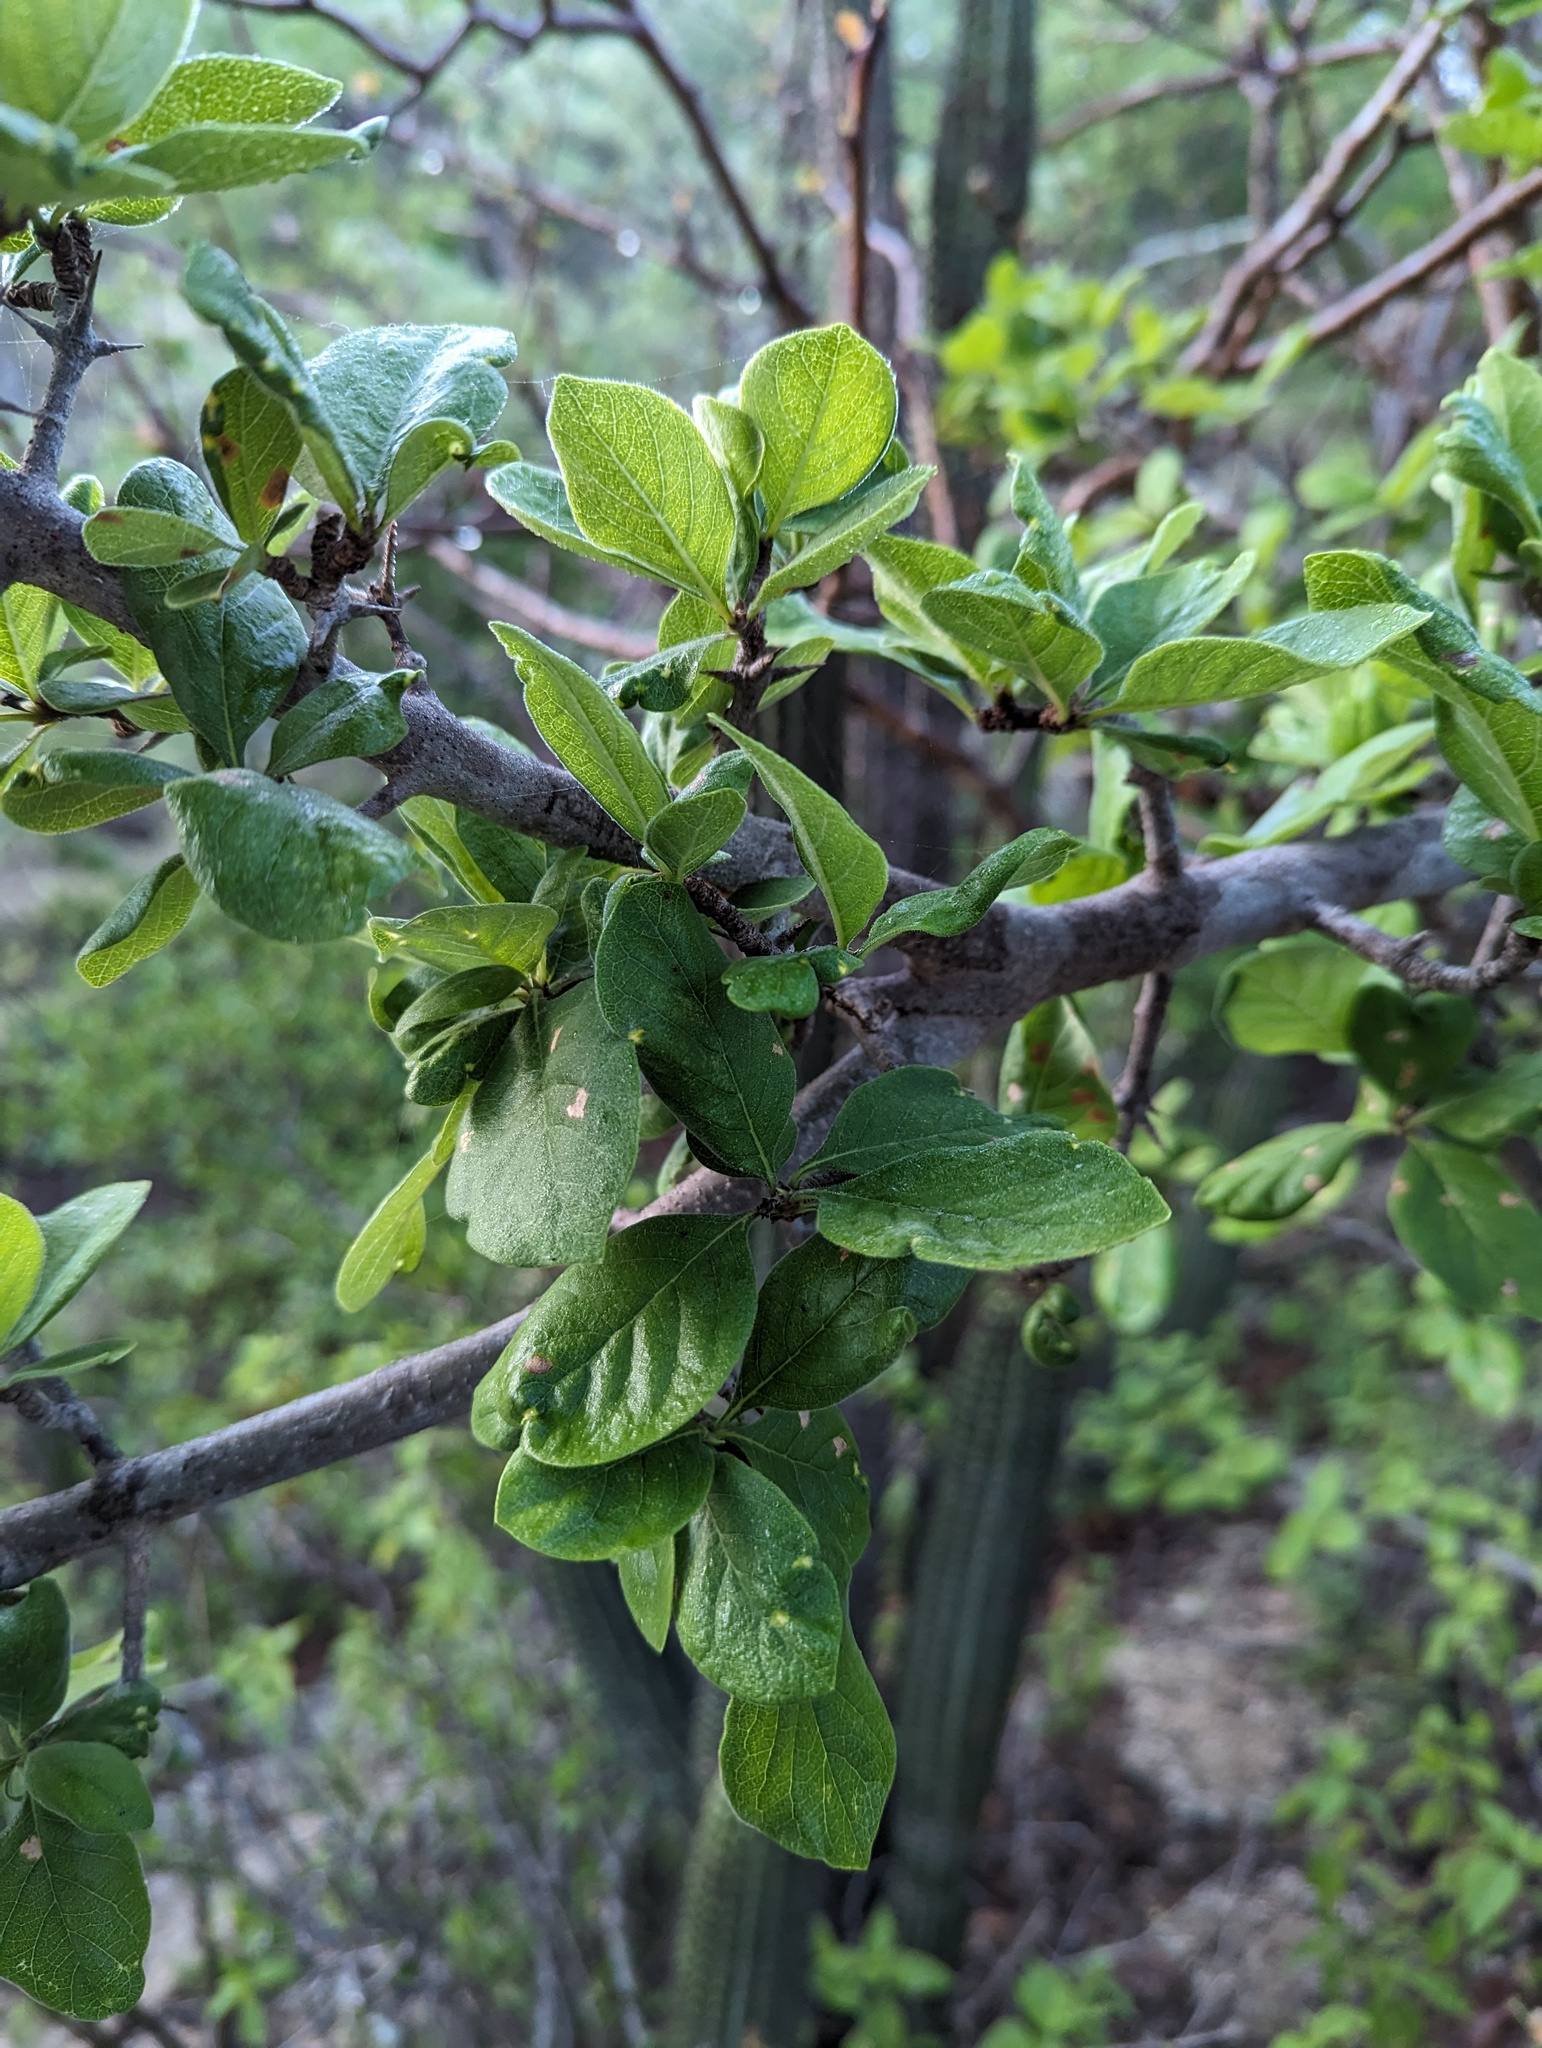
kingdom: Plantae
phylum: Tracheophyta
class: Magnoliopsida
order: Gentianales
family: Rubiaceae
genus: Randia
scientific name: Randia capitata
